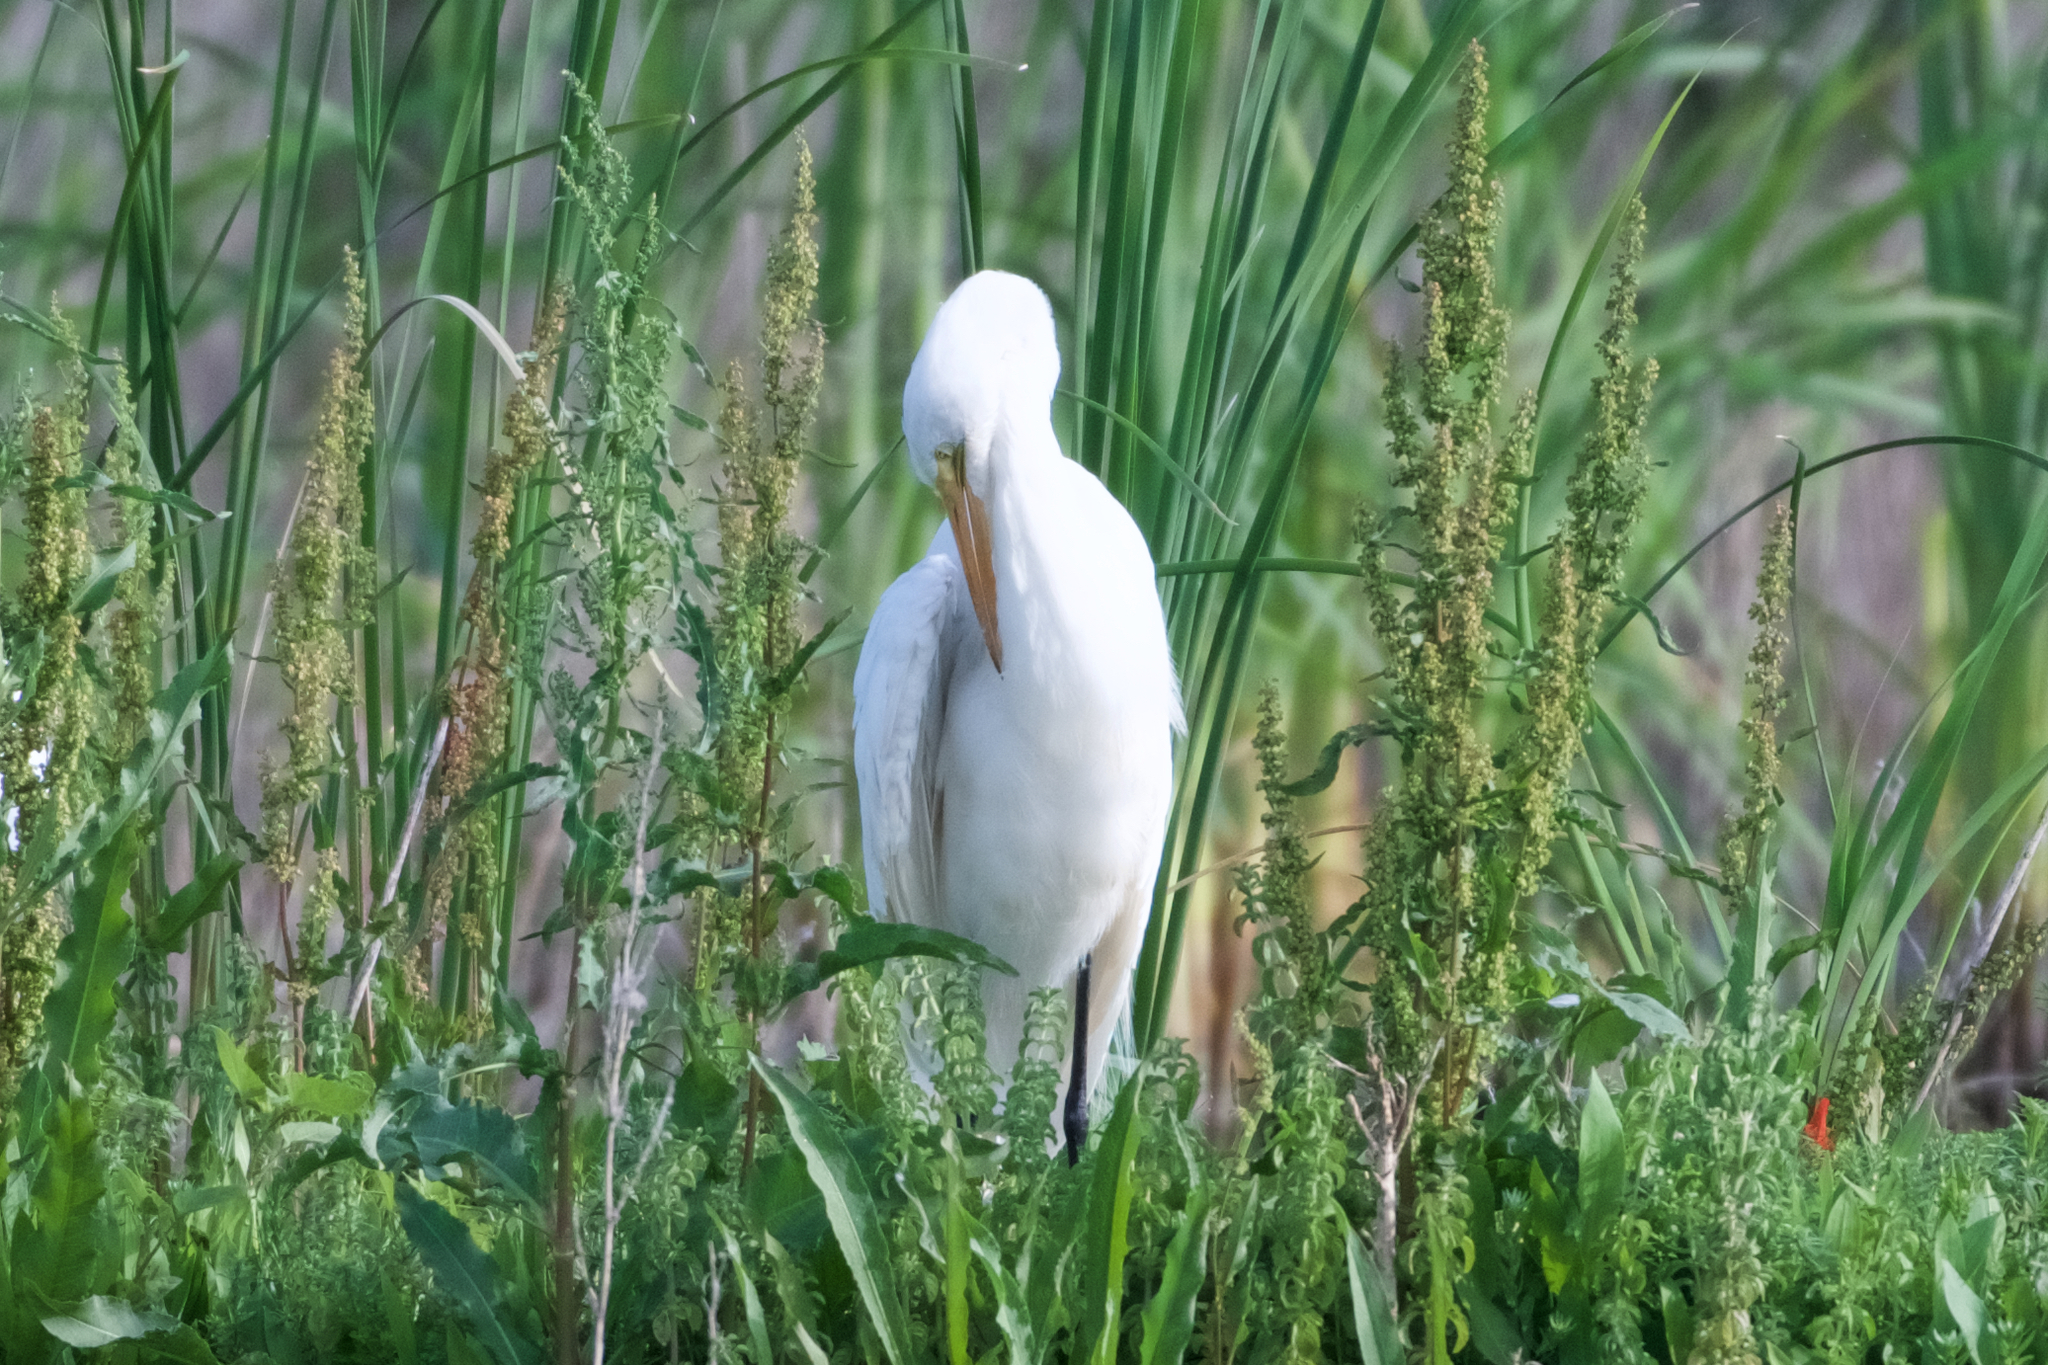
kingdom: Animalia
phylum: Chordata
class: Aves
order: Pelecaniformes
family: Ardeidae
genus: Ardea
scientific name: Ardea alba
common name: Great egret
